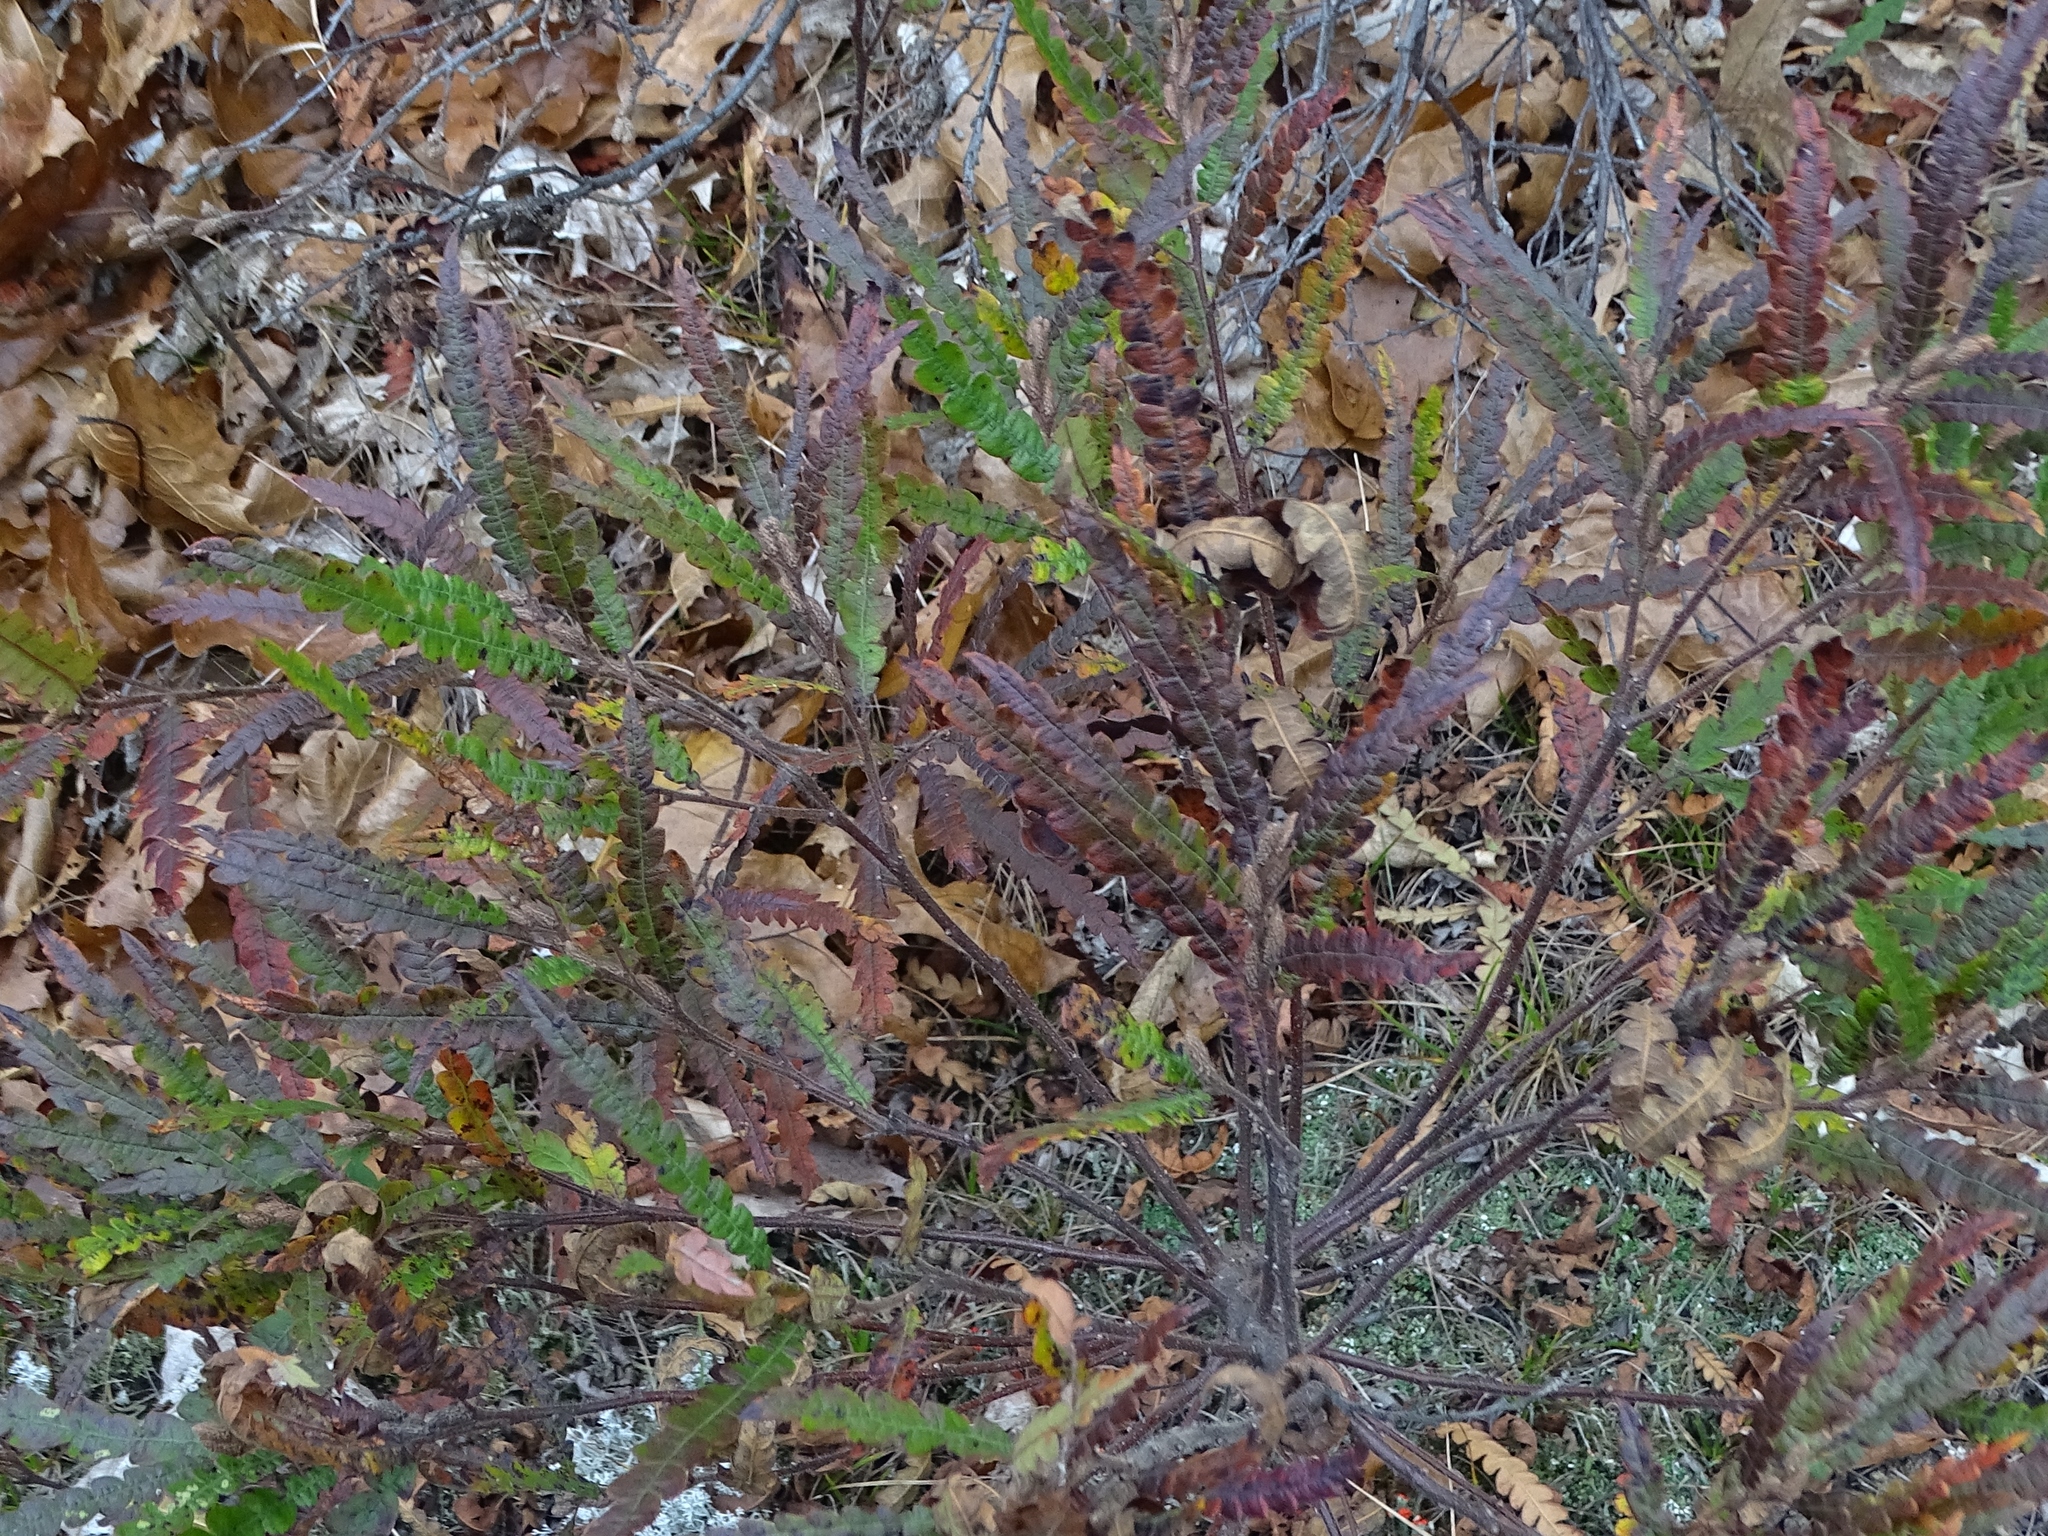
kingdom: Plantae
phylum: Tracheophyta
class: Magnoliopsida
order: Fagales
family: Myricaceae
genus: Comptonia
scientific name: Comptonia peregrina
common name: Sweet-fern
